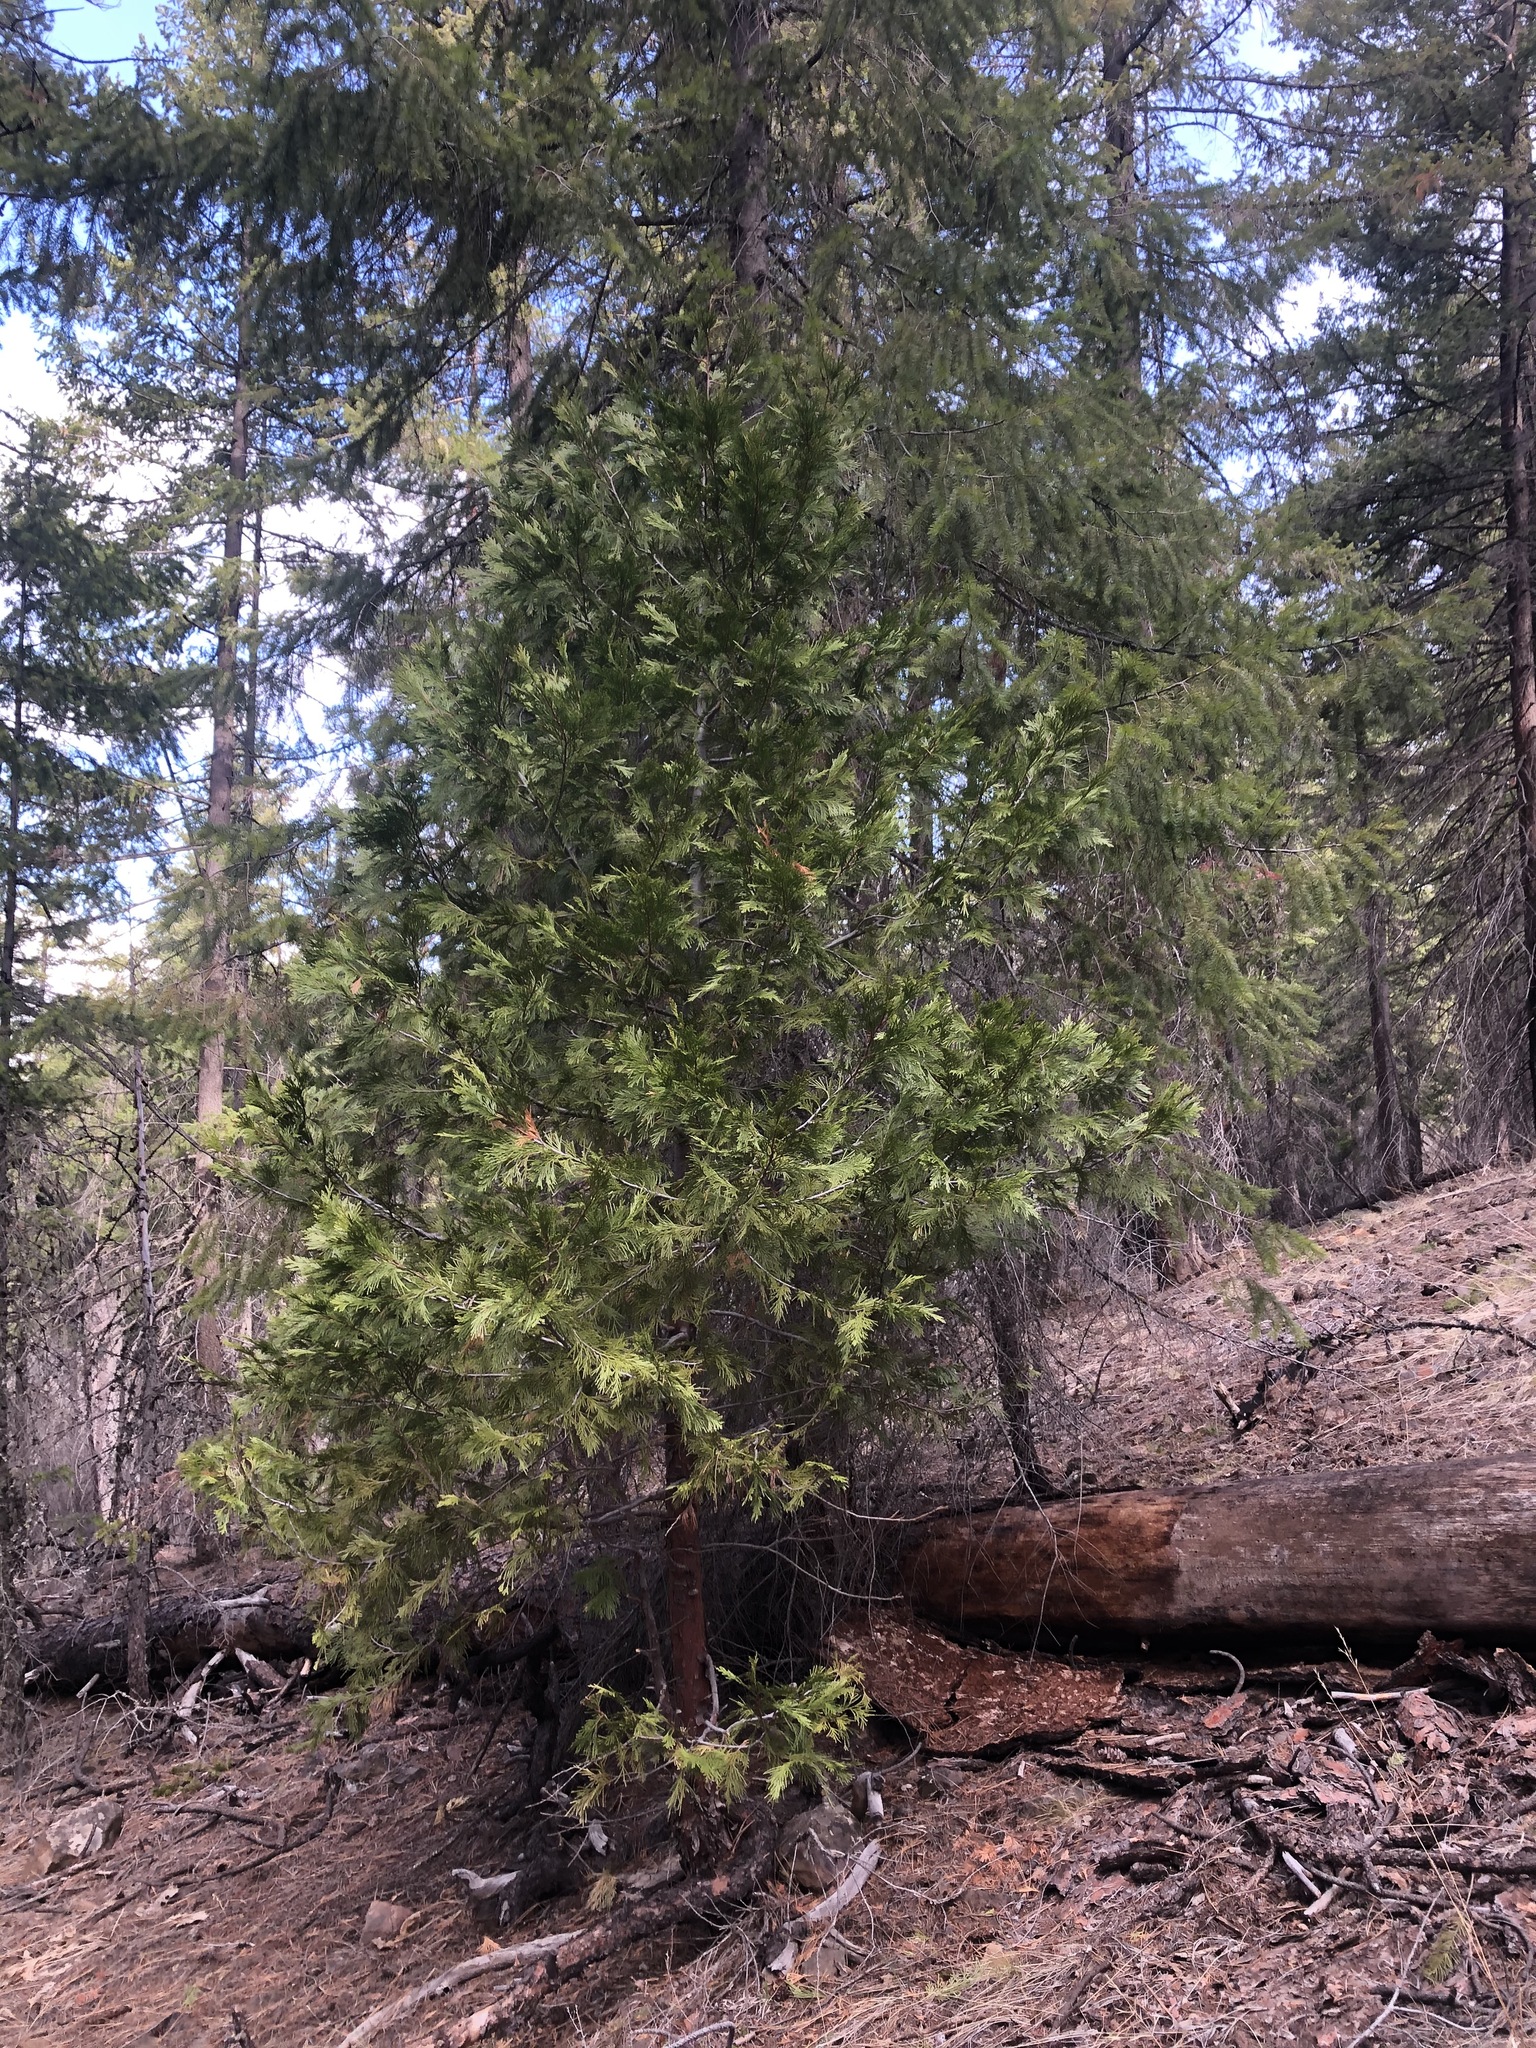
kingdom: Plantae
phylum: Tracheophyta
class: Pinopsida
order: Pinales
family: Cupressaceae
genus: Calocedrus
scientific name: Calocedrus decurrens
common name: Californian incense-cedar
